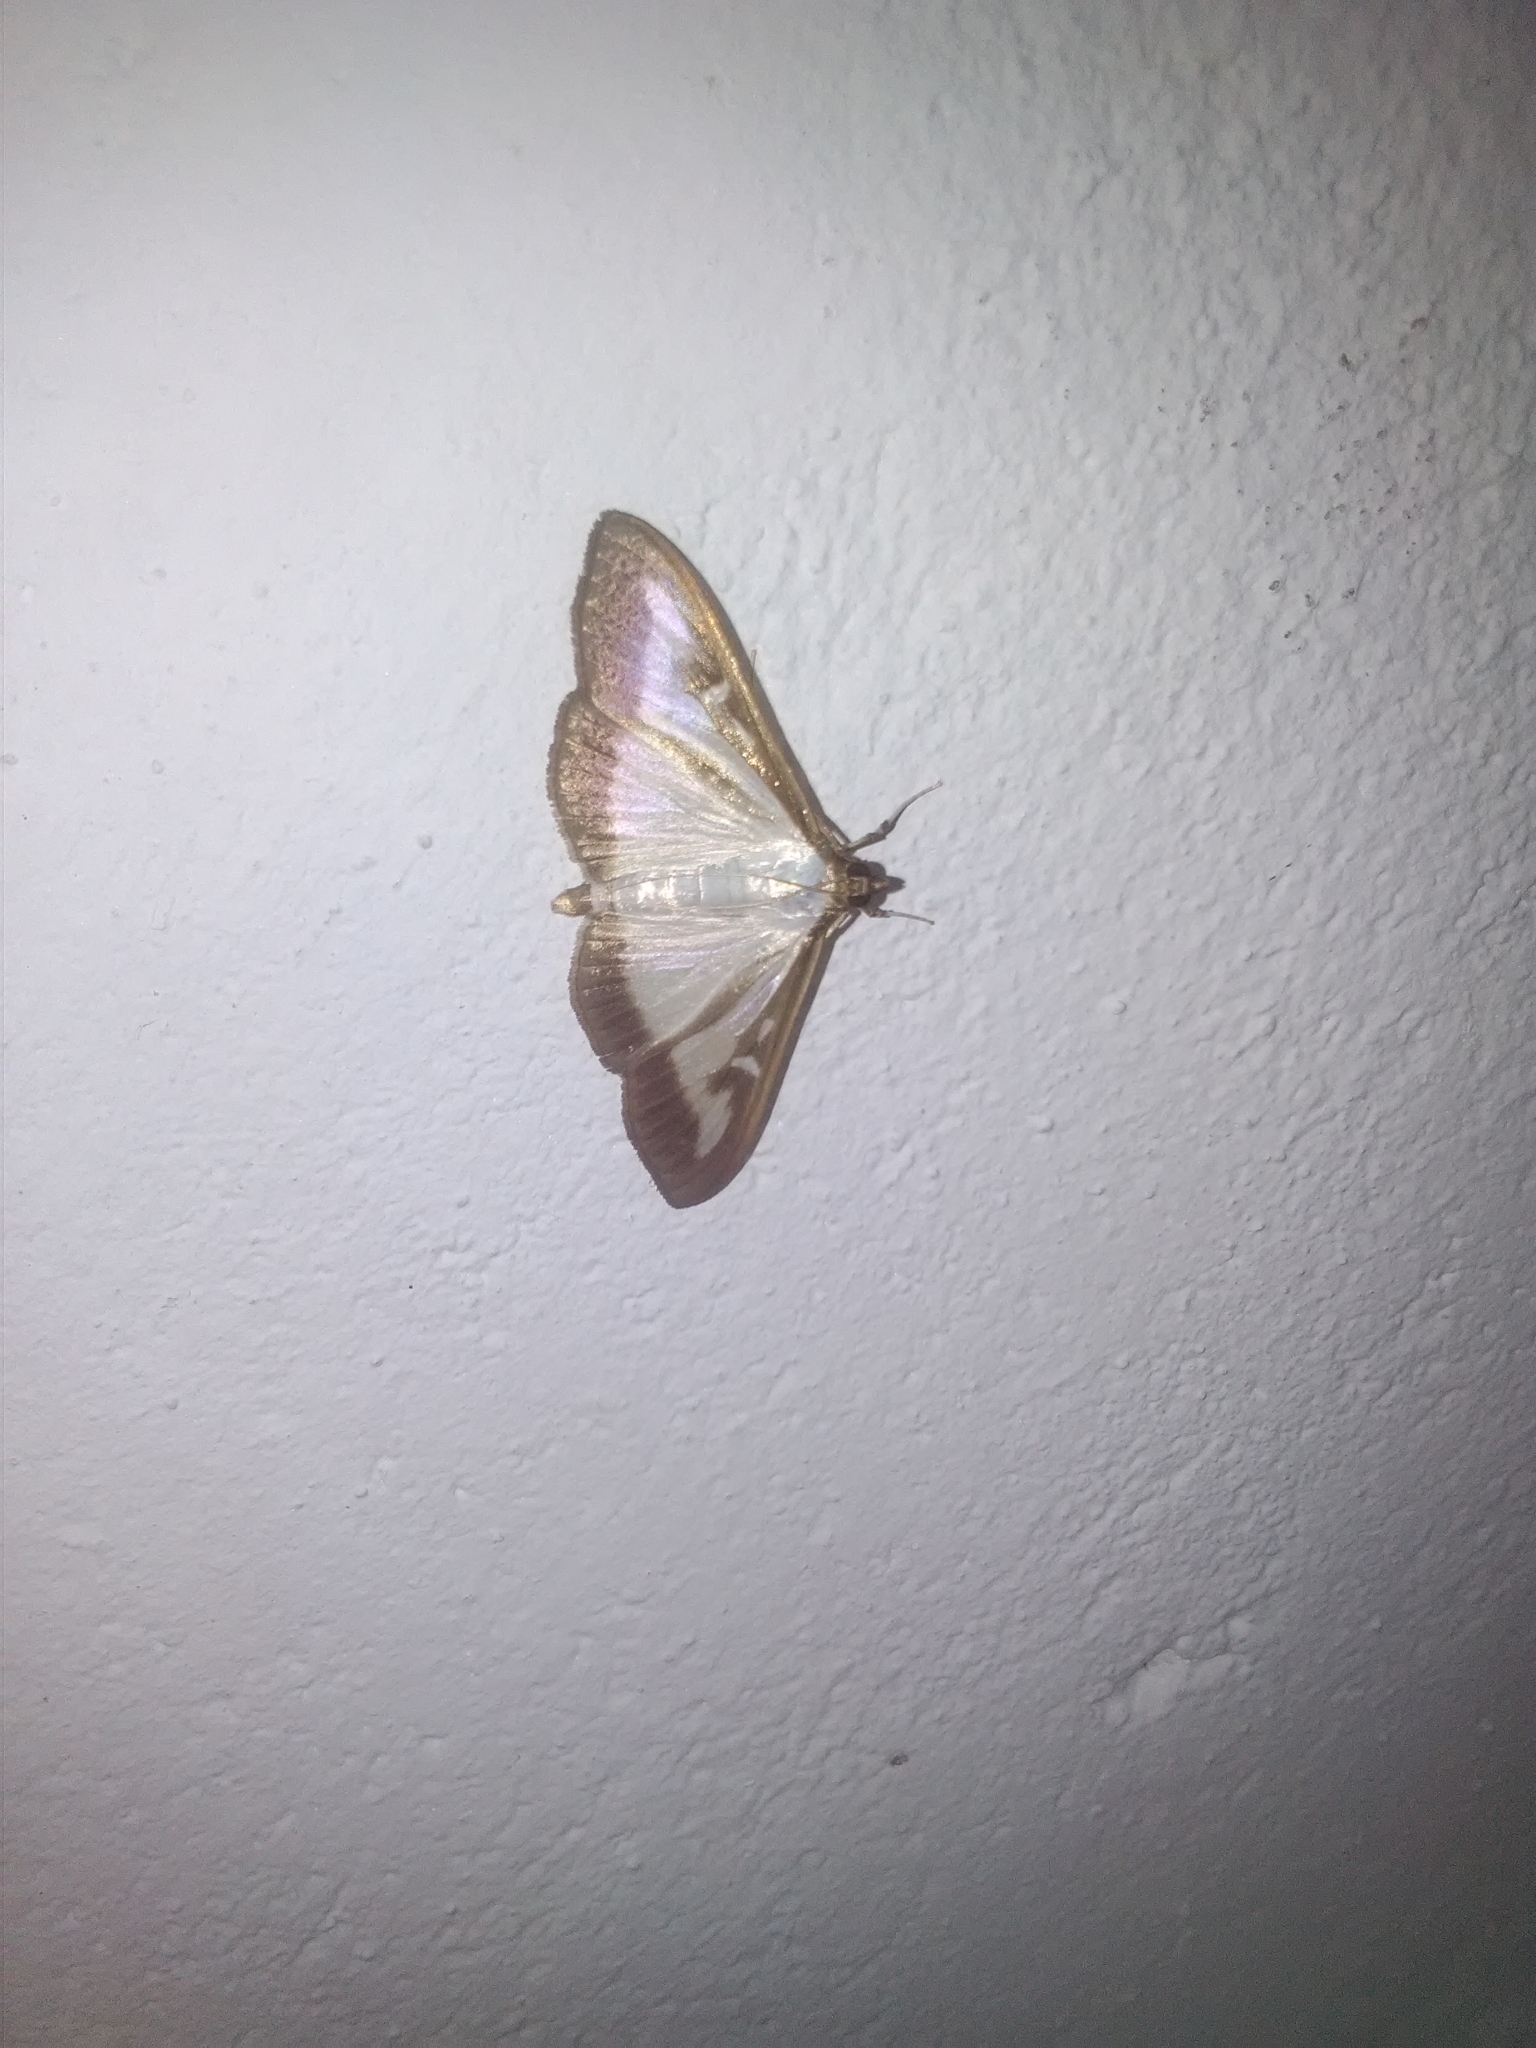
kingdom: Animalia
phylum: Arthropoda
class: Insecta
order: Lepidoptera
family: Crambidae
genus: Cydalima
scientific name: Cydalima perspectalis
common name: Box tree moth
